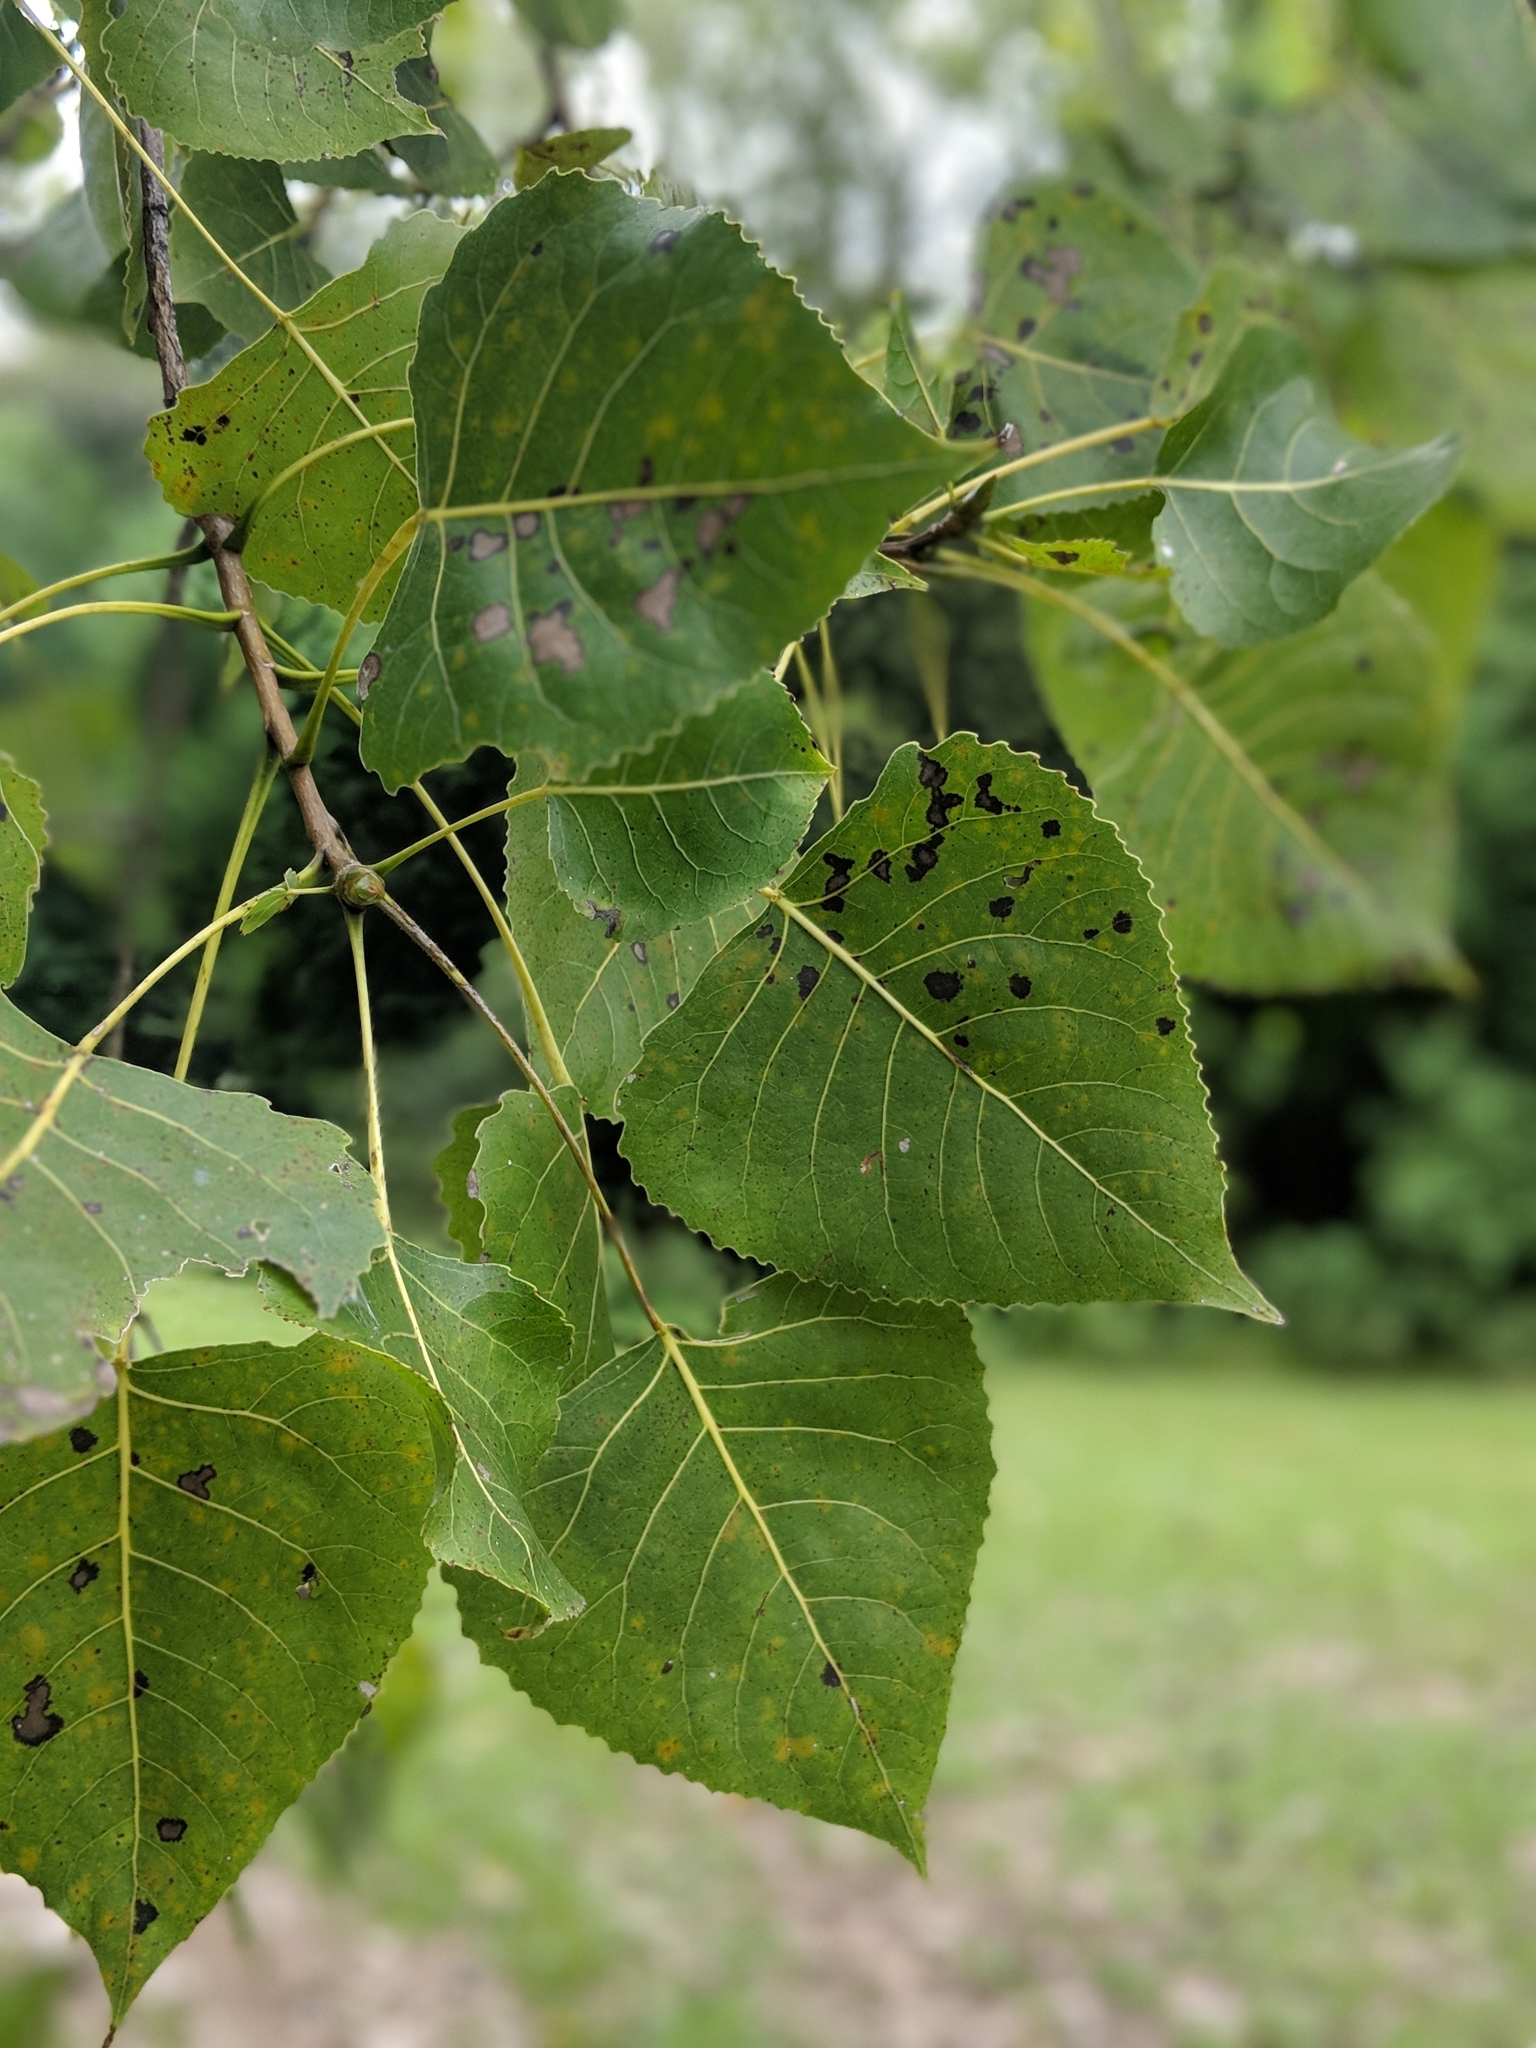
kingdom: Plantae
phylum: Tracheophyta
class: Magnoliopsida
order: Malpighiales
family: Salicaceae
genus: Populus
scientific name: Populus deltoides
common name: Eastern cottonwood
